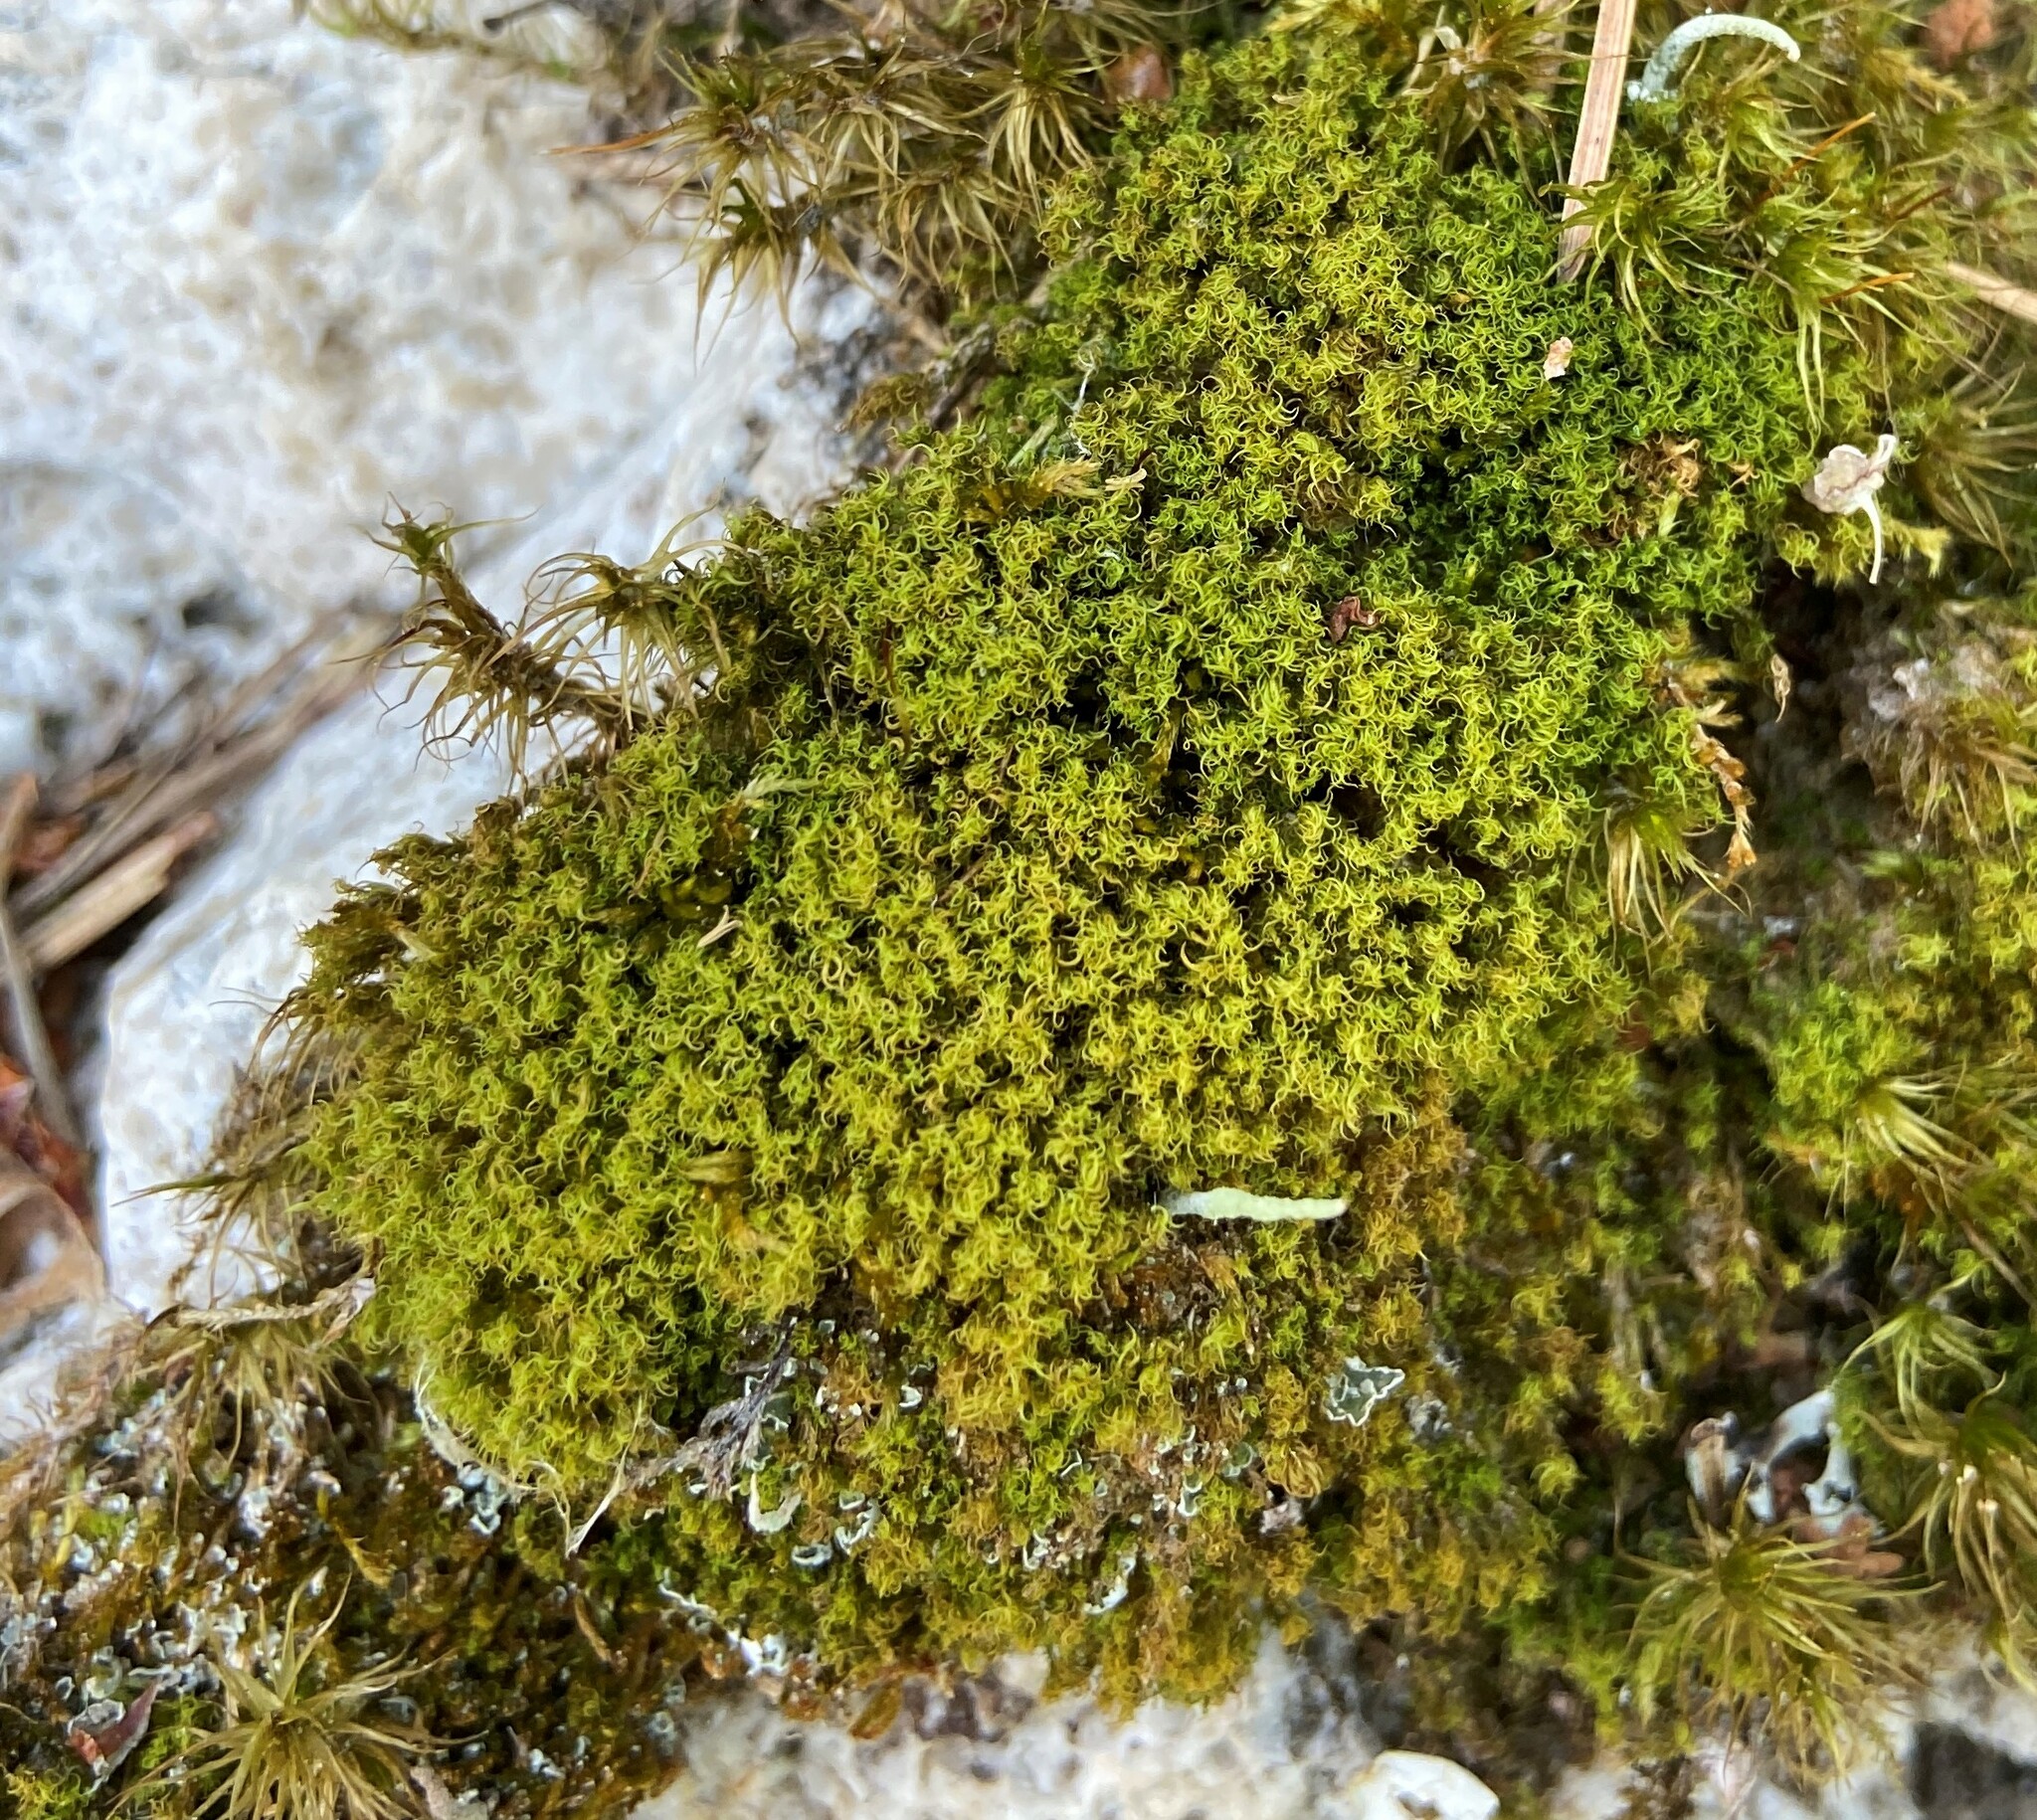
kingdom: Plantae
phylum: Bryophyta
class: Bryopsida
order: Dicranales
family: Dicranaceae
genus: Orthodicranum
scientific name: Orthodicranum montanum
